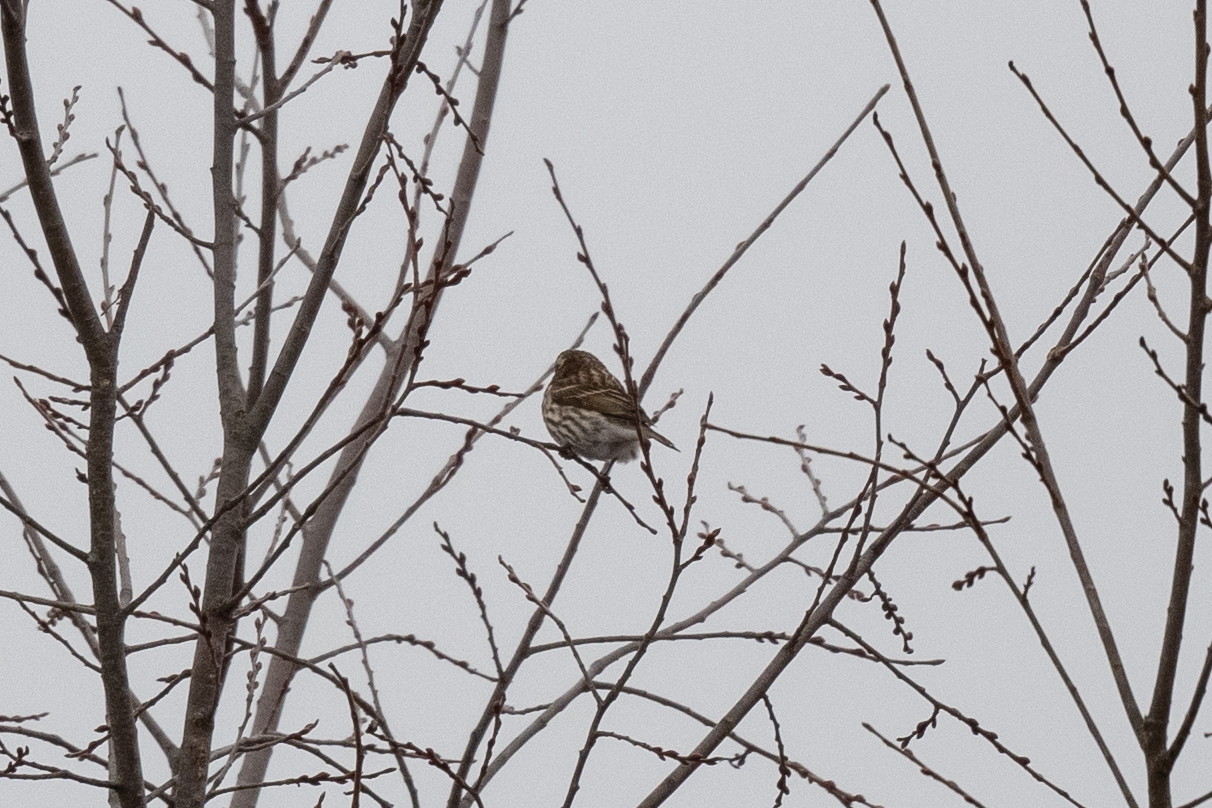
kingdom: Animalia
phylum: Chordata
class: Aves
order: Passeriformes
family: Fringillidae
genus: Haemorhous
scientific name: Haemorhous purpureus
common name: Purple finch
